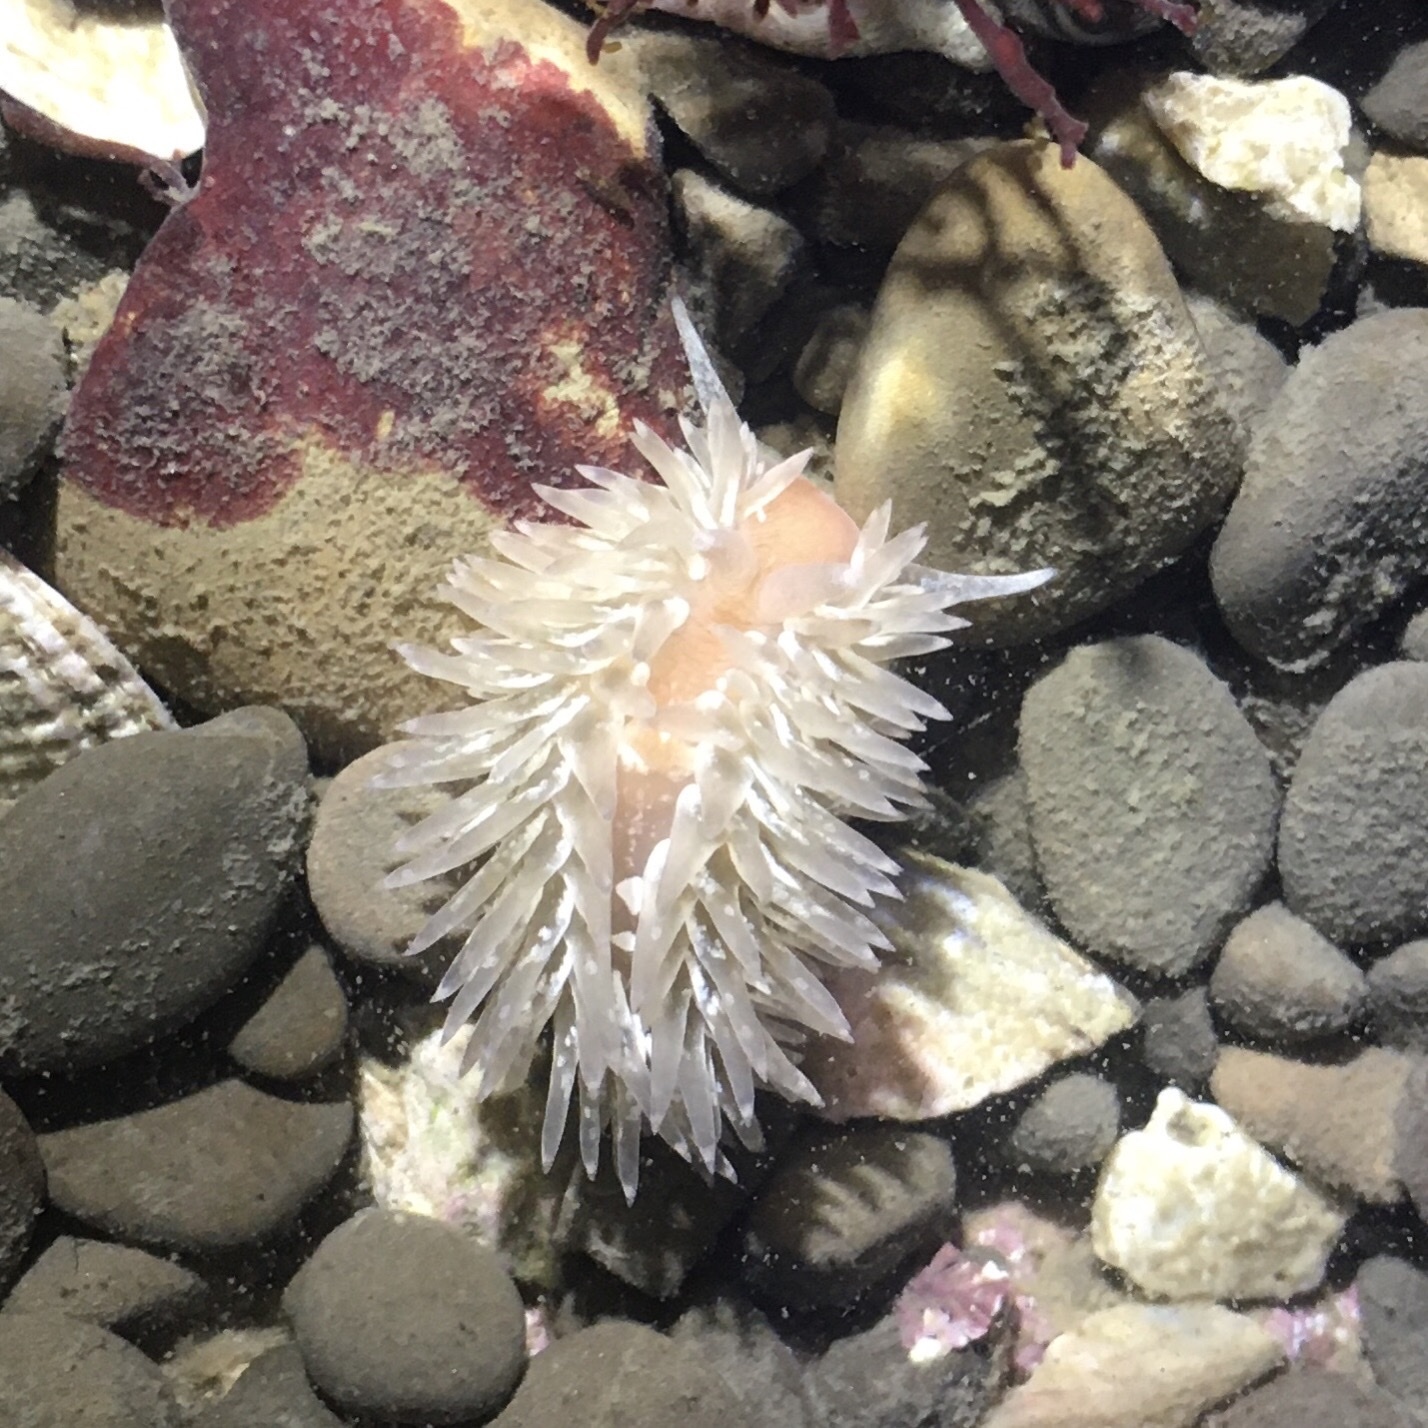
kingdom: Animalia
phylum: Mollusca
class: Gastropoda
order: Nudibranchia
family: Aeolidiidae
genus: Aeolidia
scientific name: Aeolidia loui
